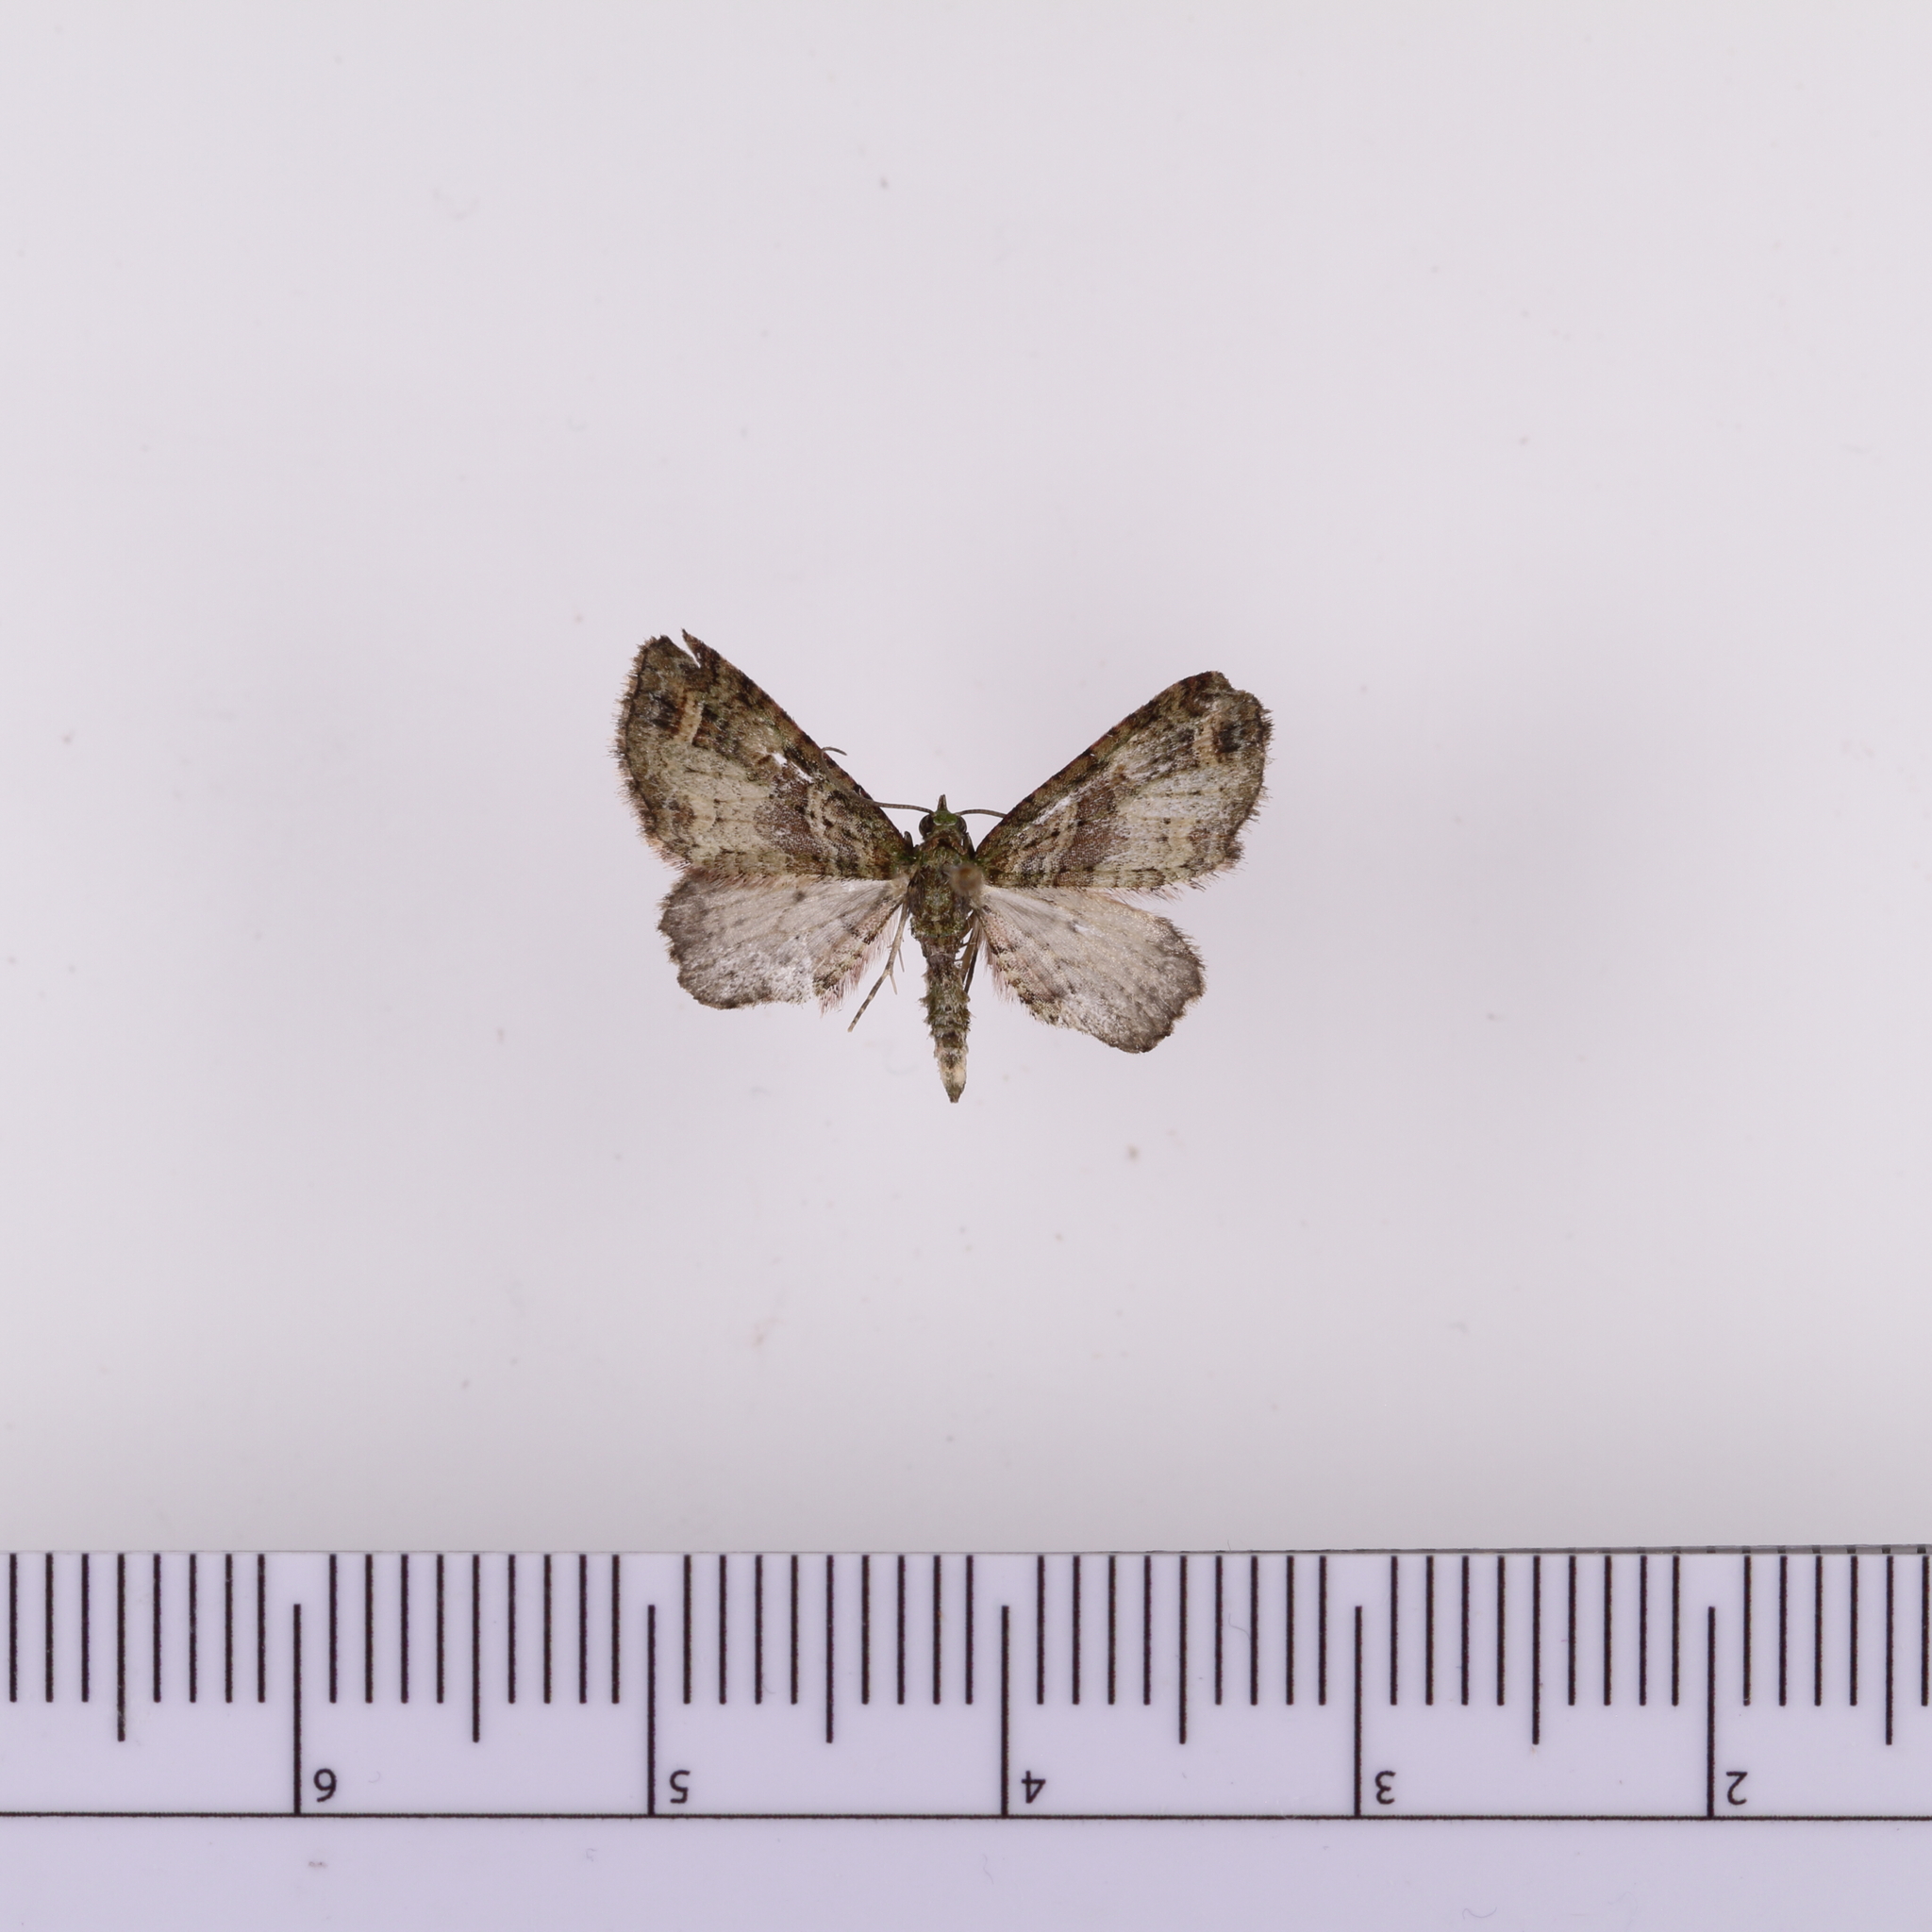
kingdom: Animalia
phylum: Arthropoda
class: Insecta
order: Lepidoptera
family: Geometridae
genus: Idaea
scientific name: Idaea mutanda
